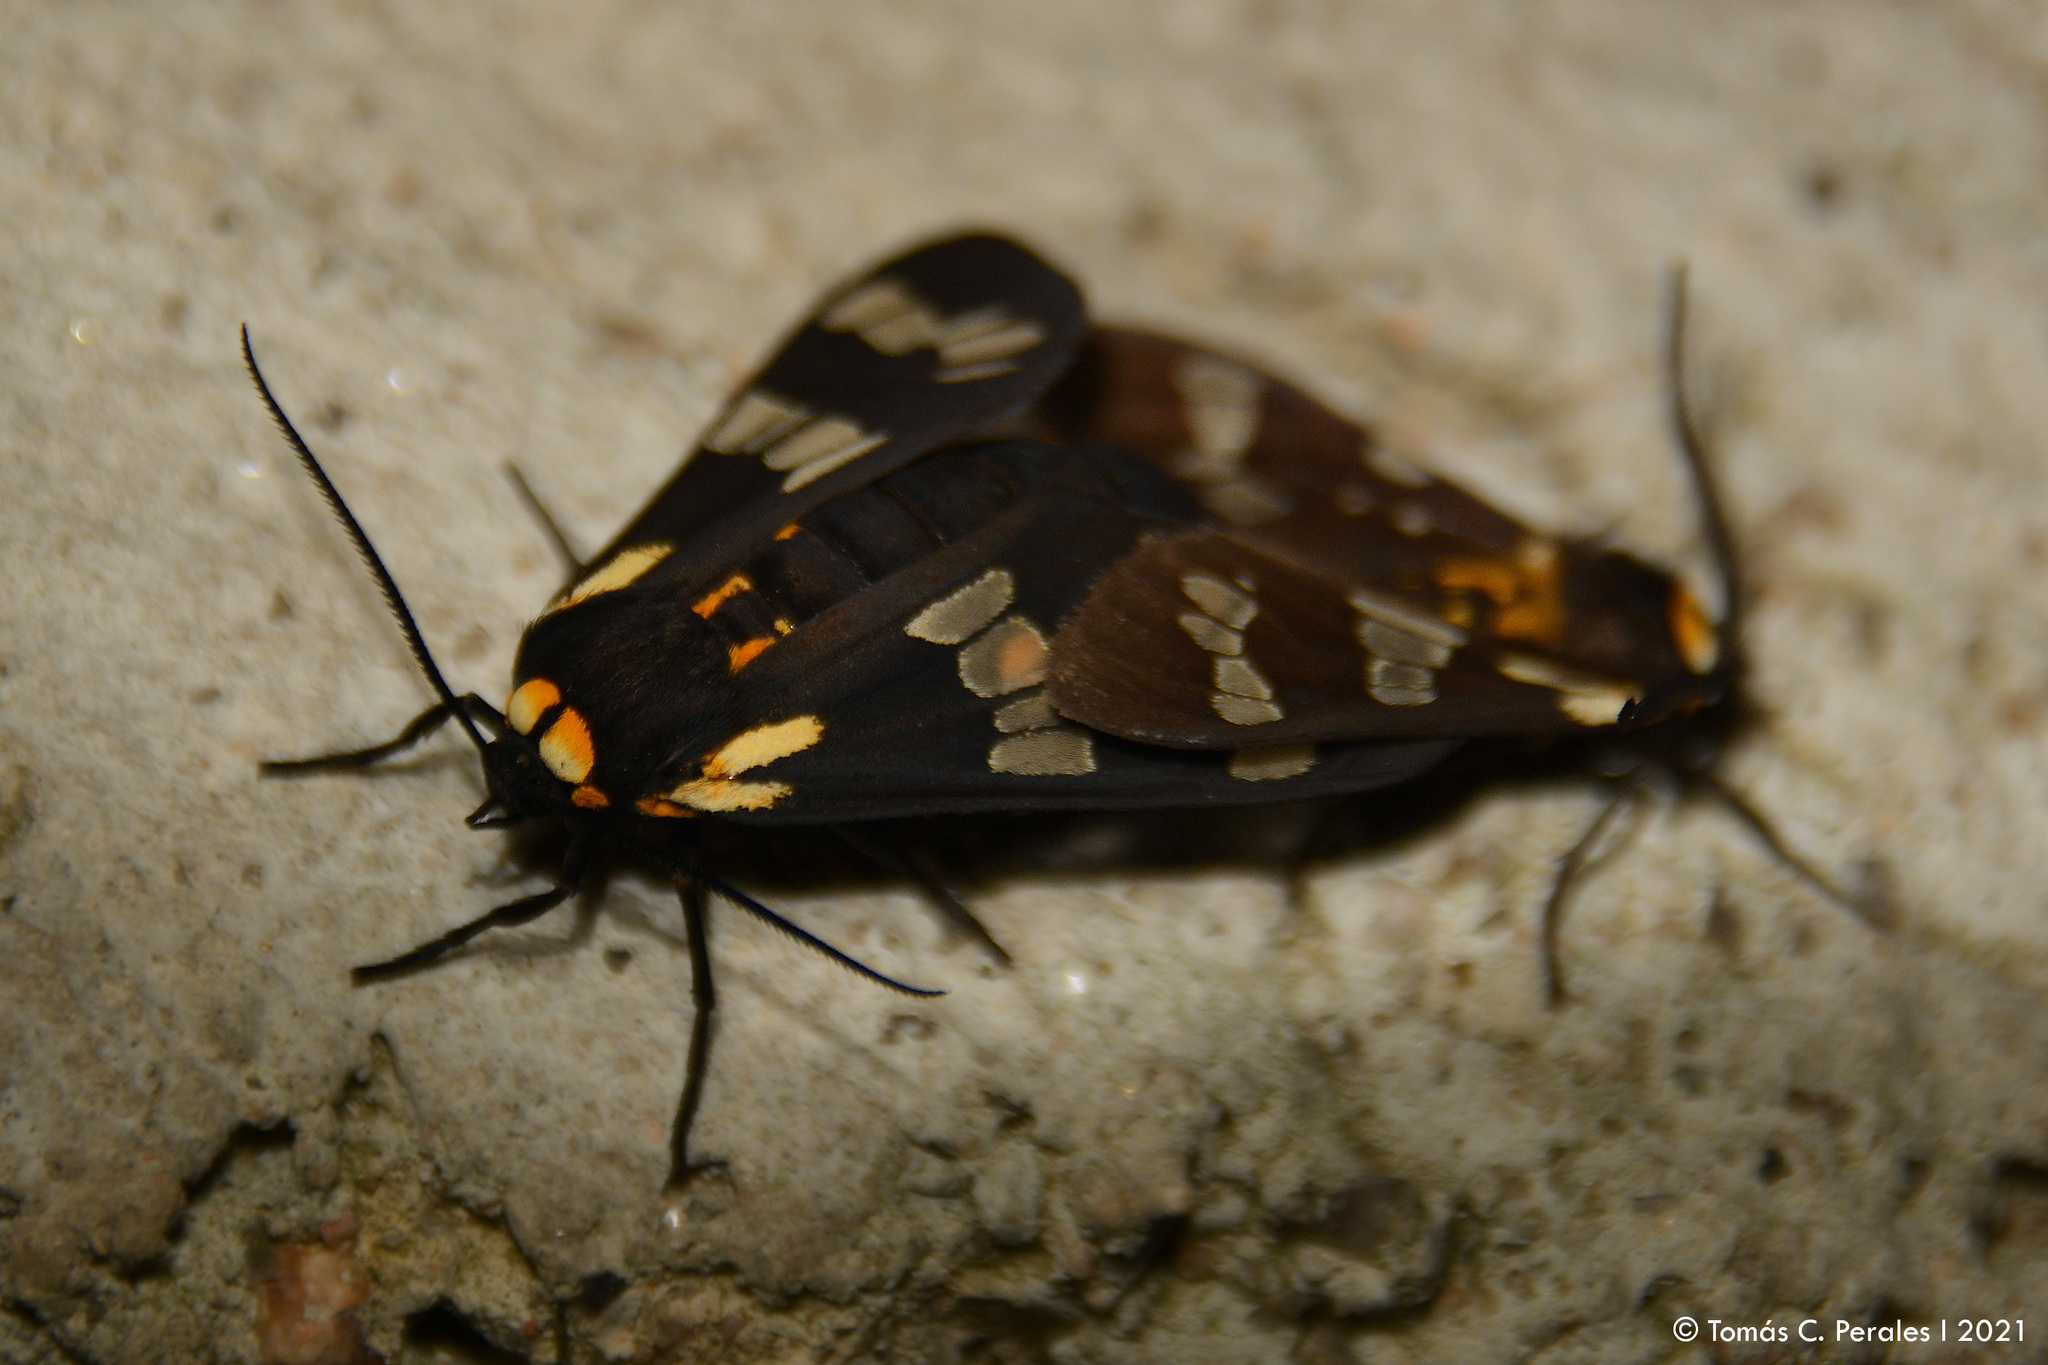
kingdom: Animalia
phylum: Arthropoda
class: Insecta
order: Lepidoptera
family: Erebidae
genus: Eurata
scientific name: Eurata
